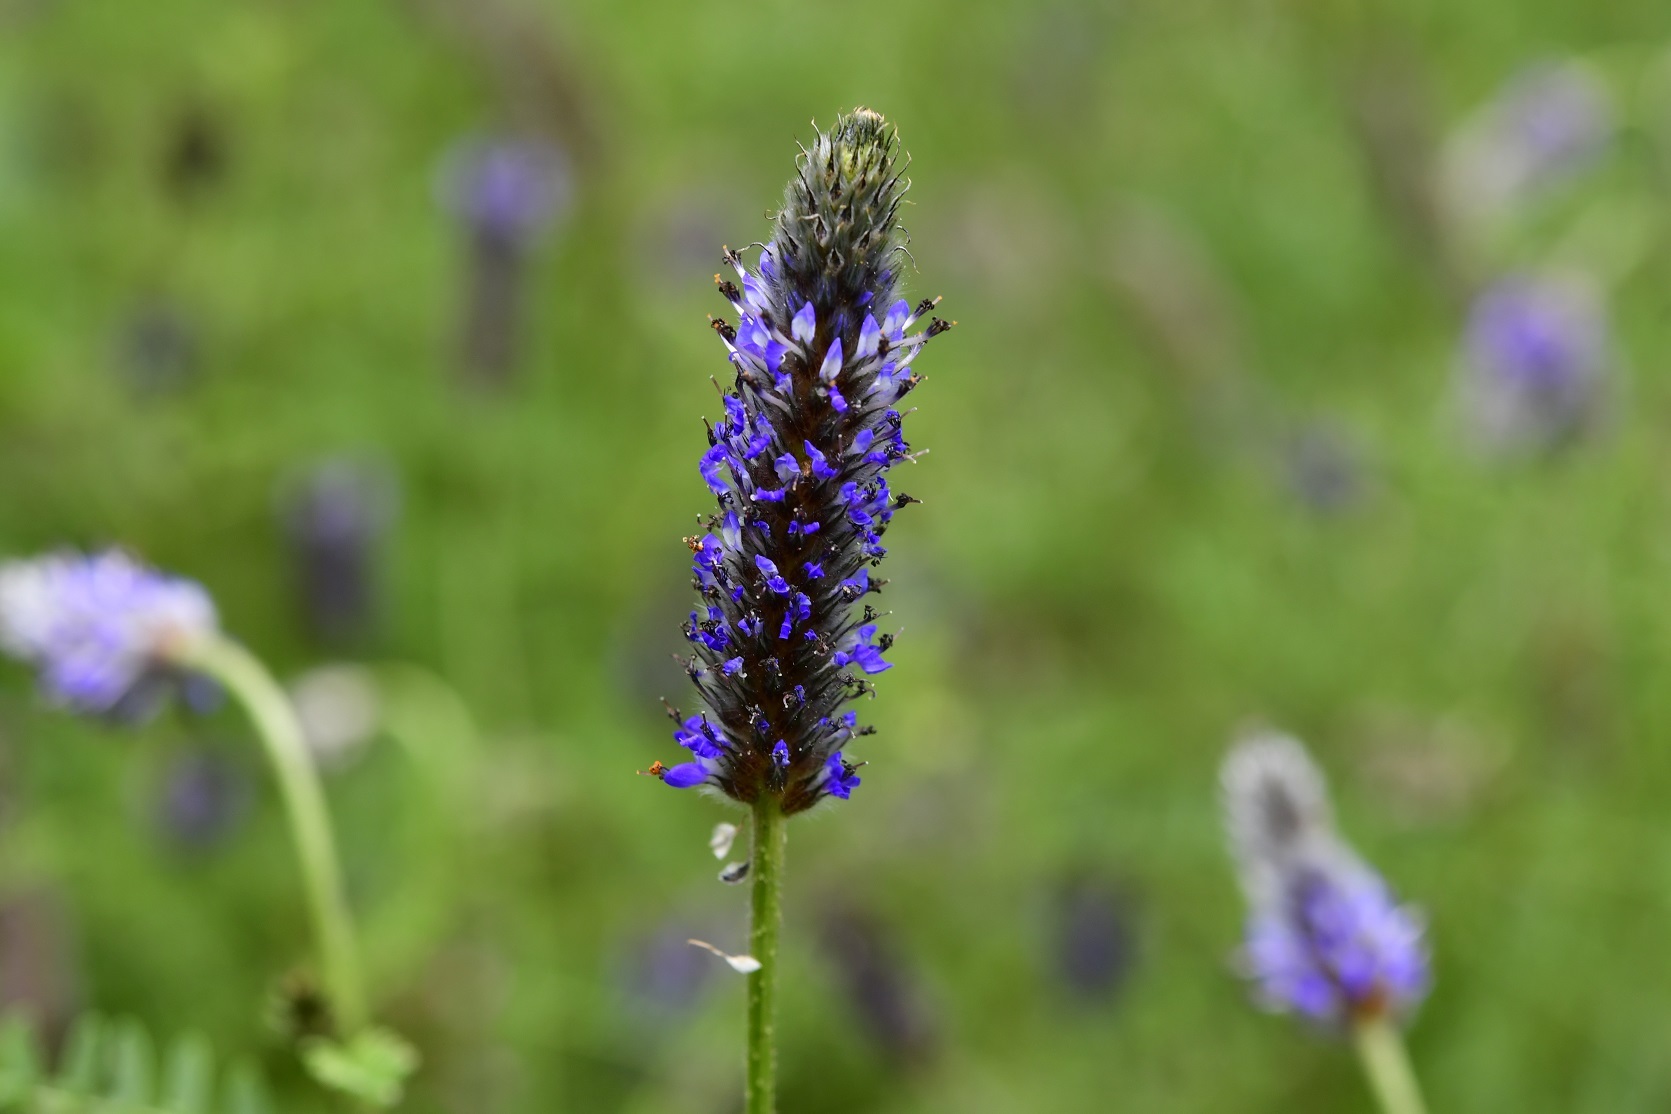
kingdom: Plantae
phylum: Tracheophyta
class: Magnoliopsida
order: Fabales
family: Fabaceae
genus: Dalea
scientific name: Dalea leporina
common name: Foxtail dalea
